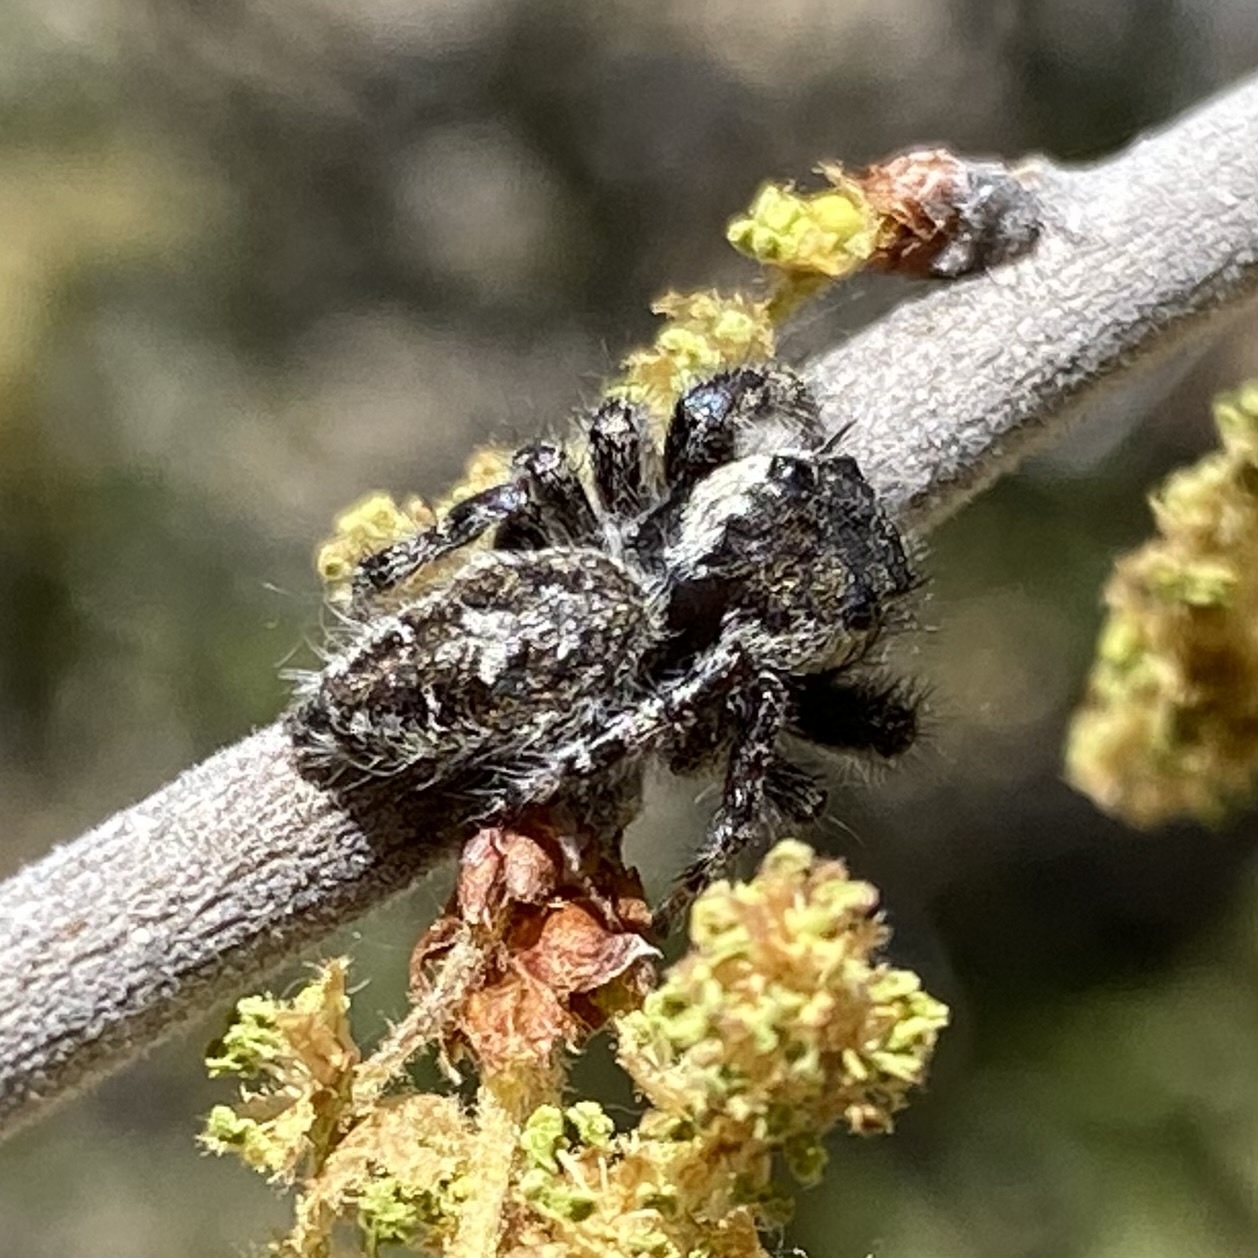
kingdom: Animalia
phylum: Arthropoda
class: Arachnida
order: Araneae
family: Salticidae
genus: Phidippus
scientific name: Phidippus asotus
